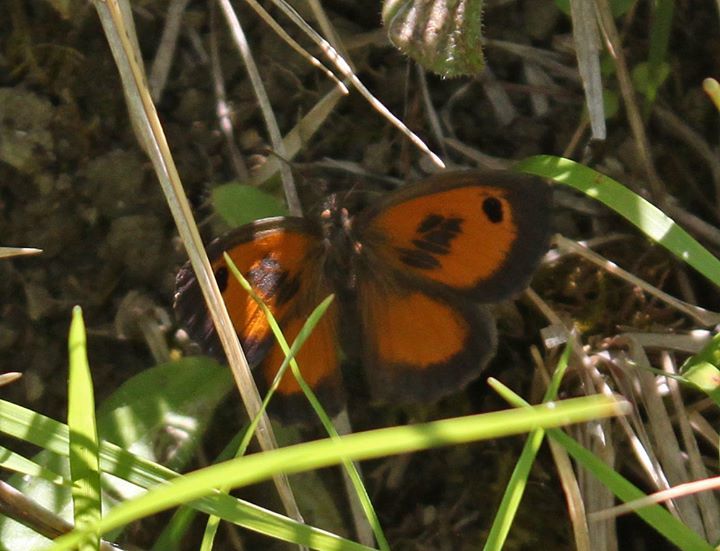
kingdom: Animalia
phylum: Arthropoda
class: Insecta
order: Lepidoptera
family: Nymphalidae
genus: Pyronia
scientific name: Pyronia cecilia
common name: Southern gatekeeper
